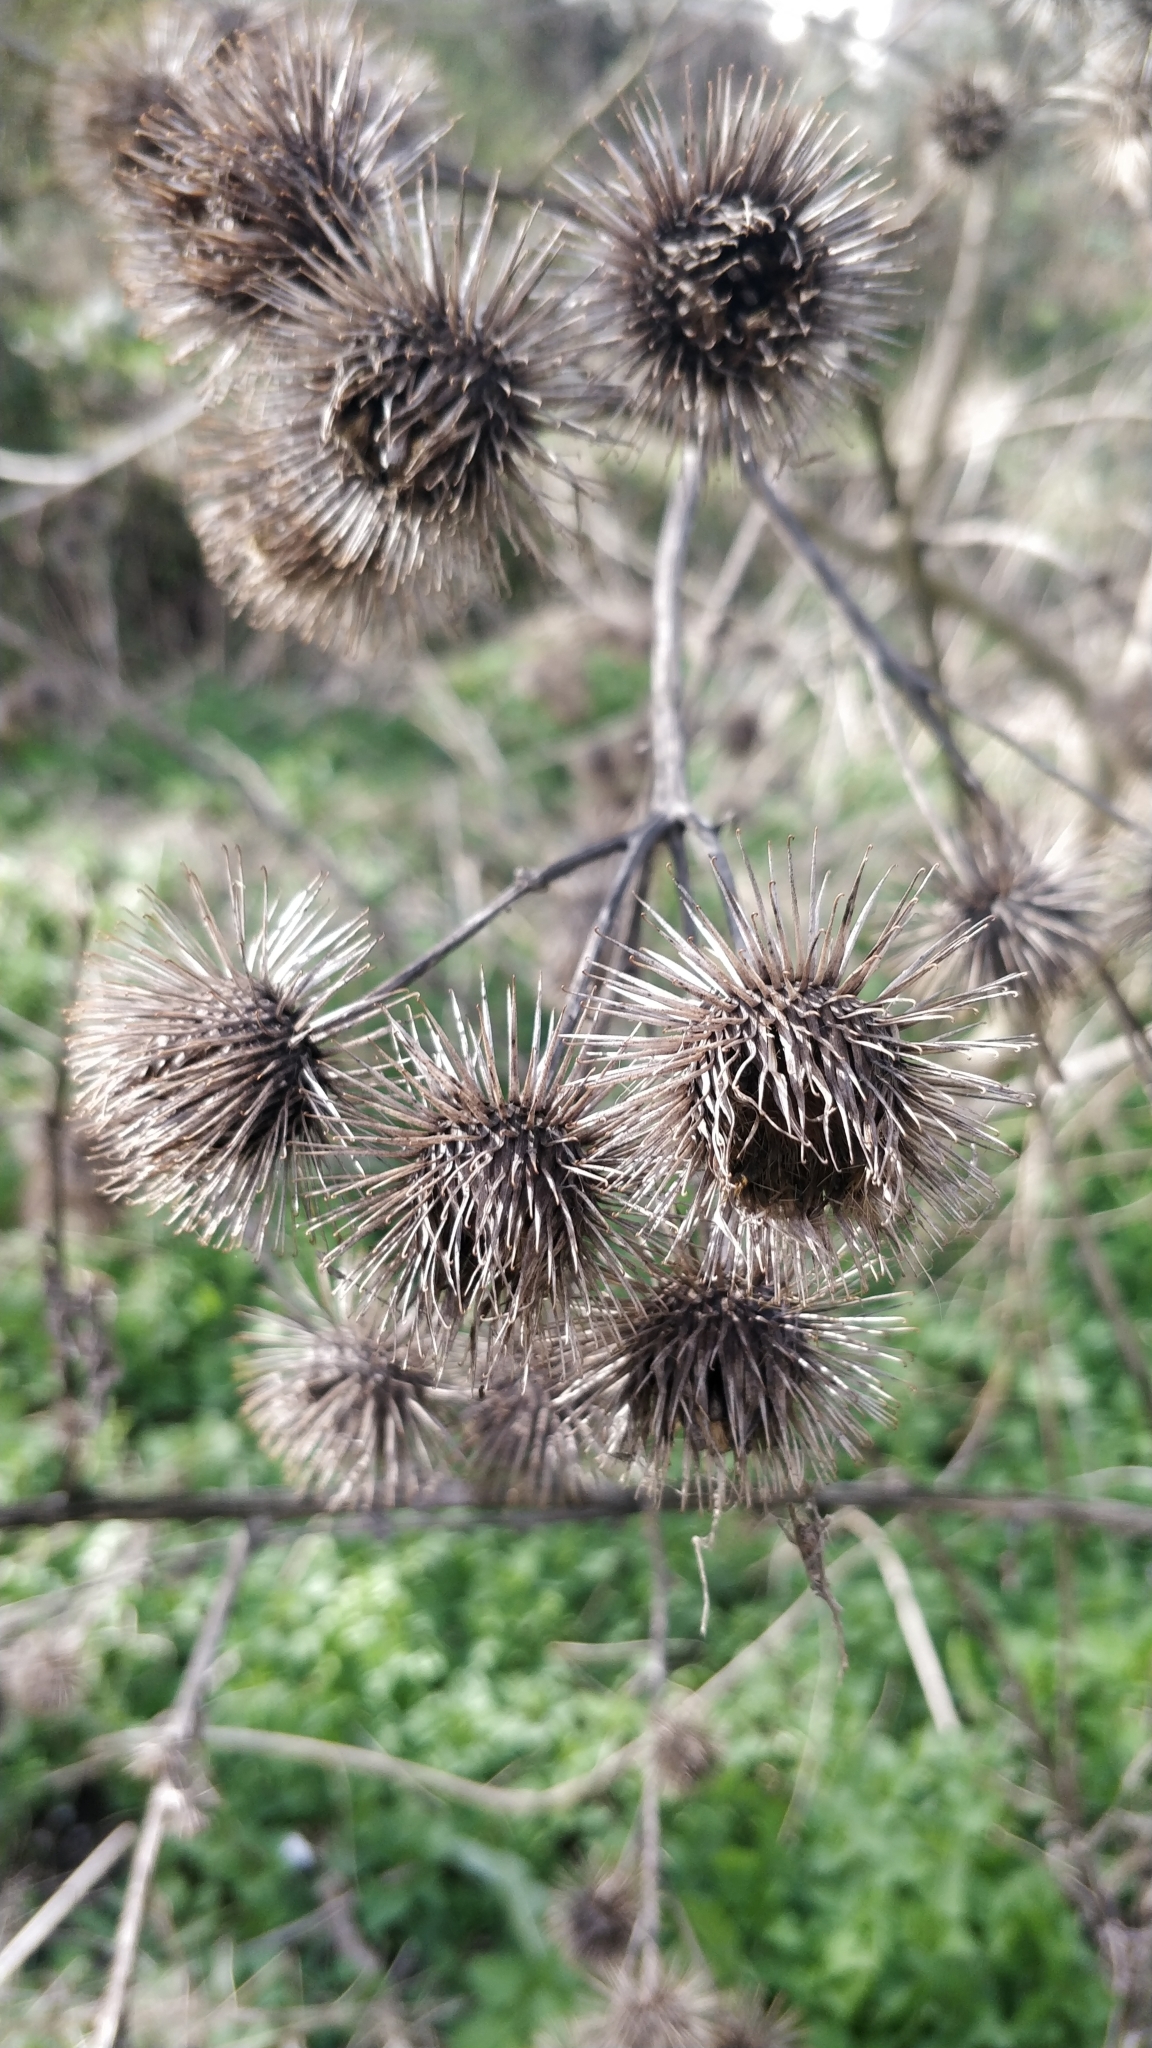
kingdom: Plantae
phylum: Tracheophyta
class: Magnoliopsida
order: Asterales
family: Asteraceae
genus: Arctium
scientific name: Arctium lappa
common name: Greater burdock
